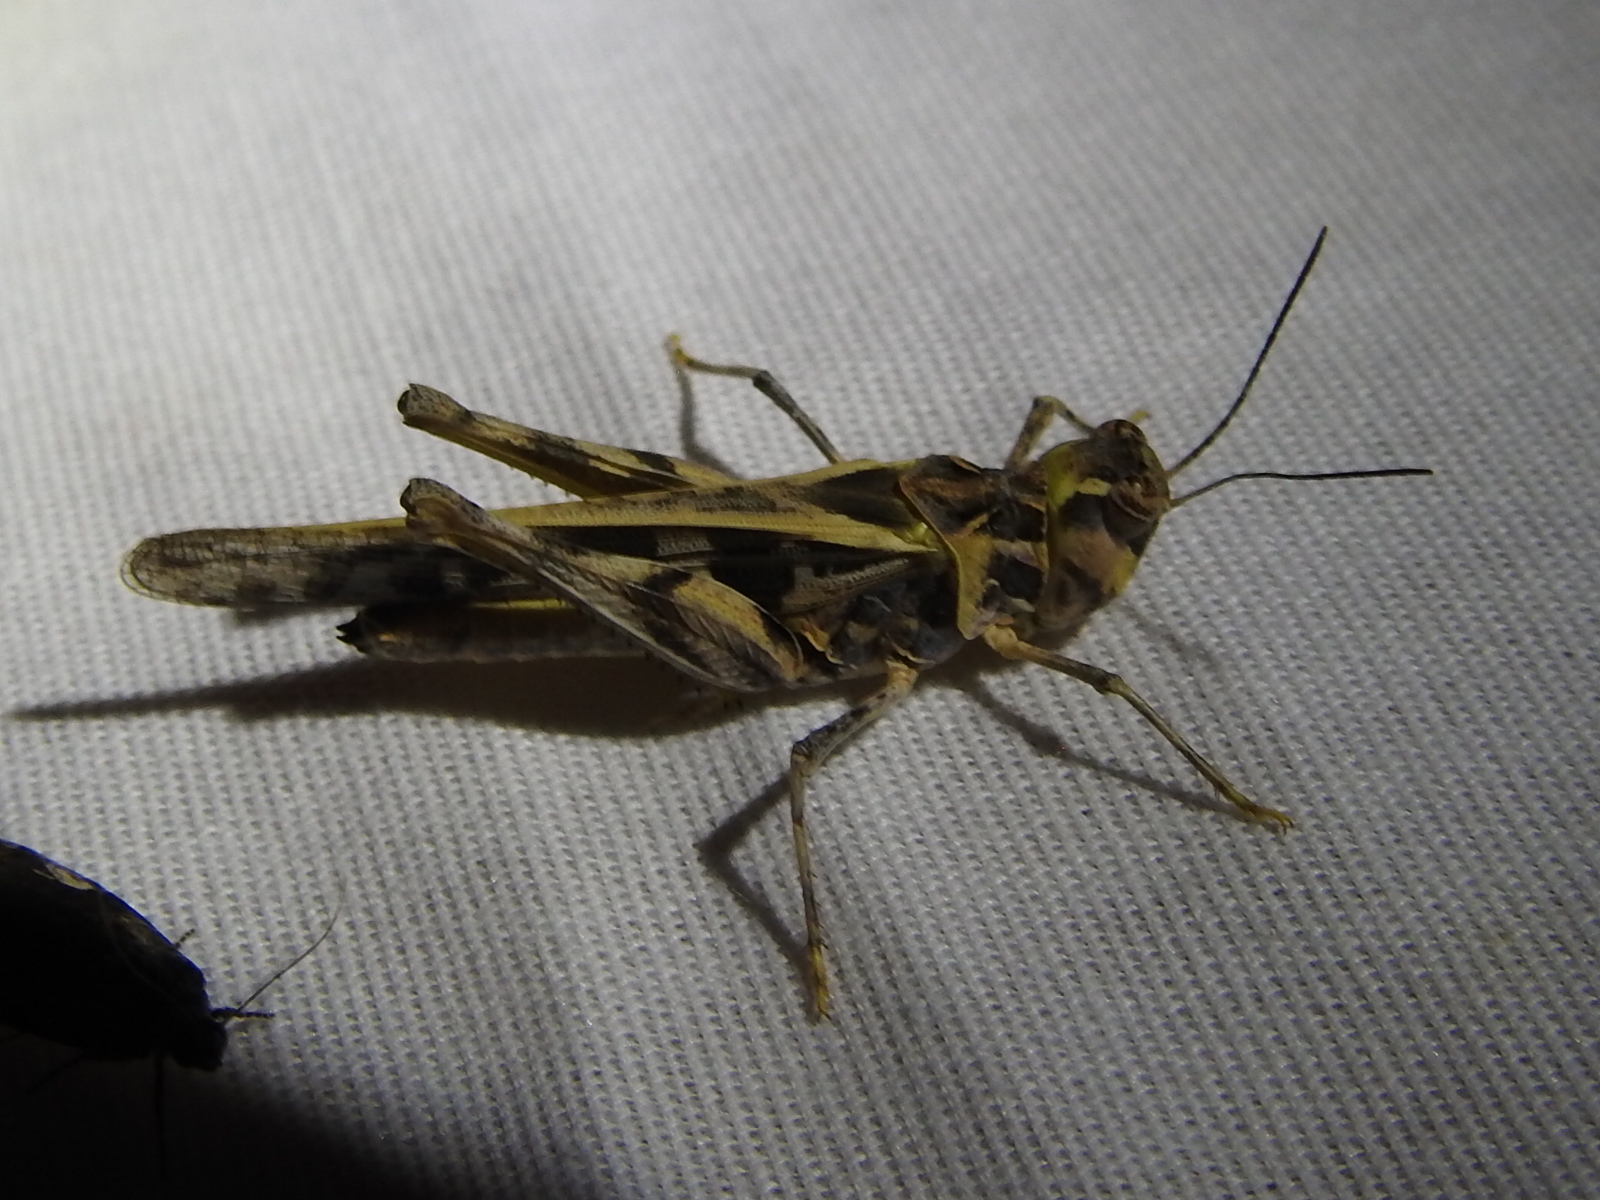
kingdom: Animalia
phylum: Arthropoda
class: Insecta
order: Orthoptera
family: Acrididae
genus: Hippopedon
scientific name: Hippopedon capito
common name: Apache grasshopper
